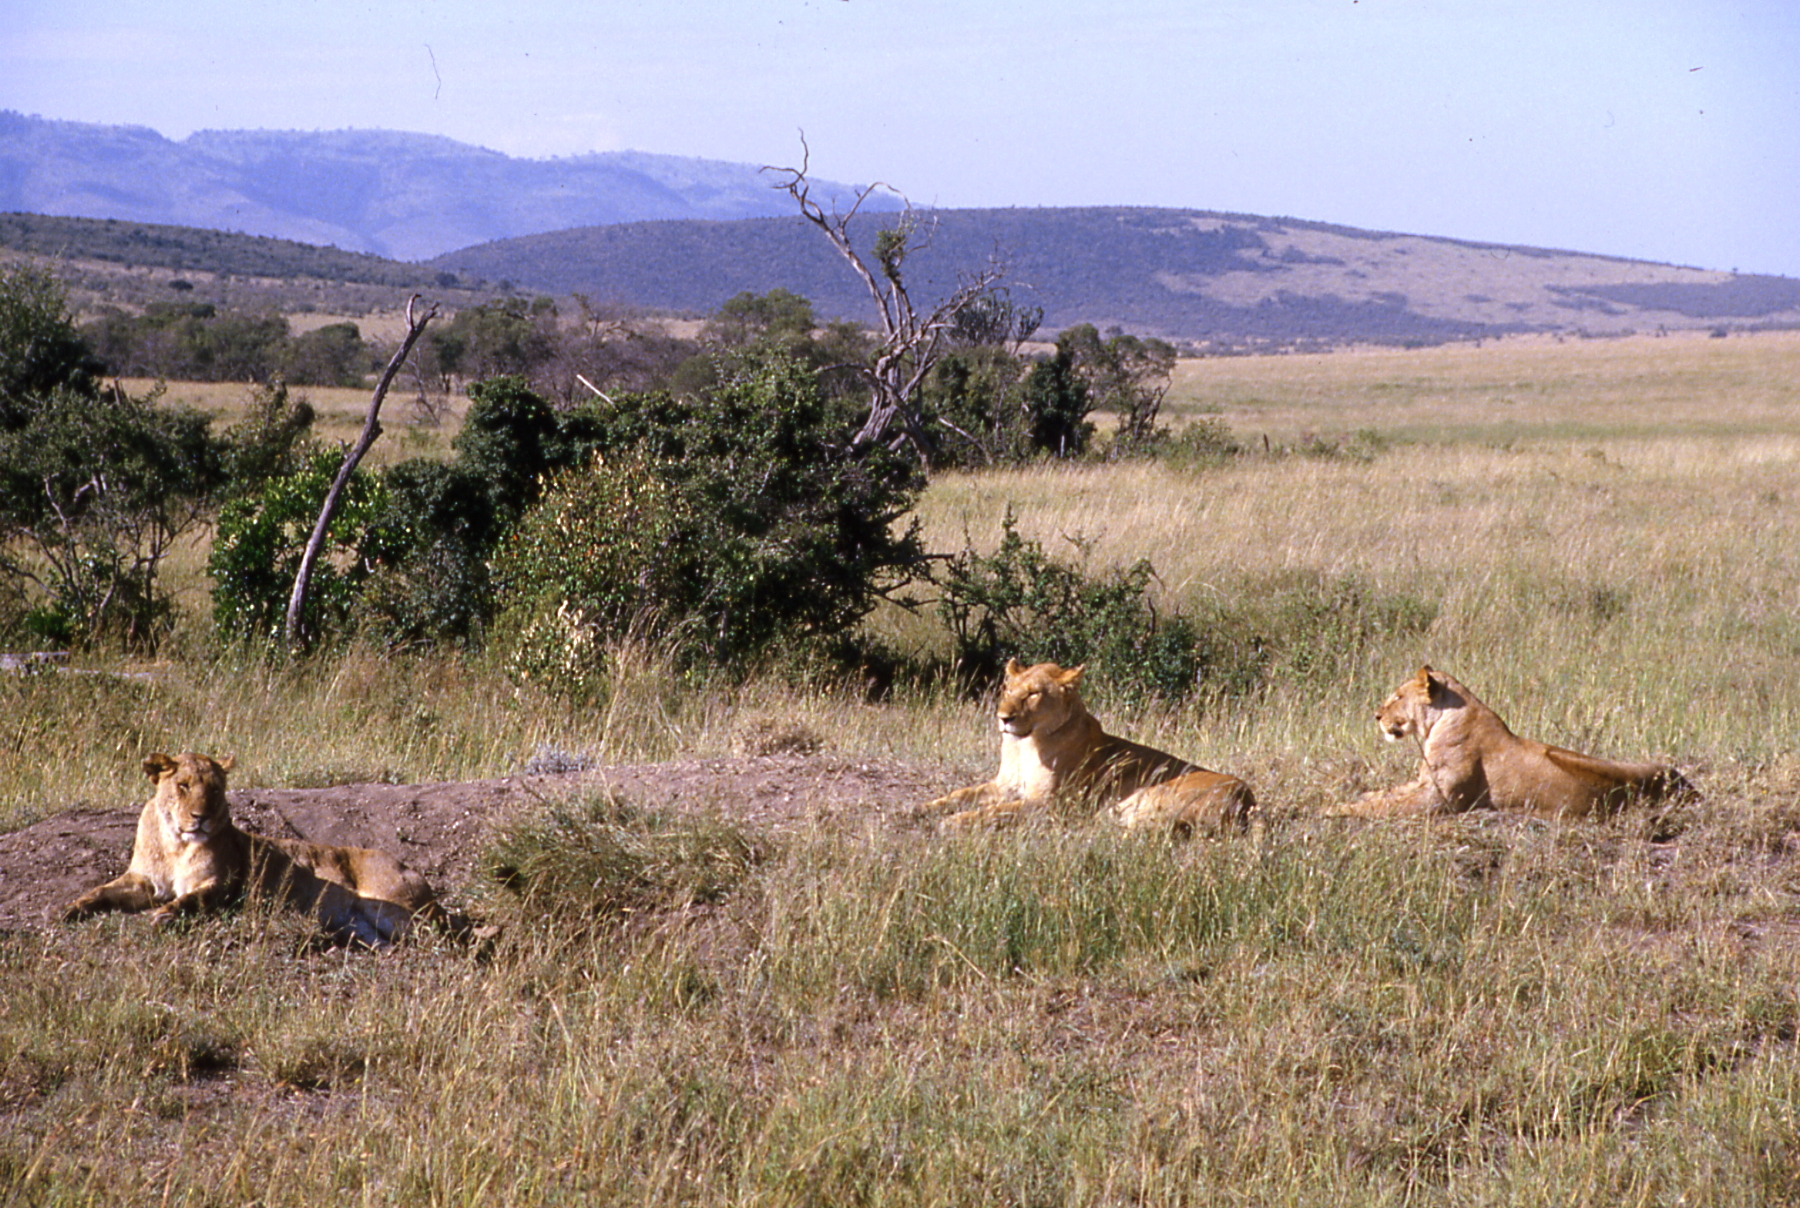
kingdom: Animalia
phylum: Chordata
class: Mammalia
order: Carnivora
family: Felidae
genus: Panthera
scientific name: Panthera leo
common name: Lion
